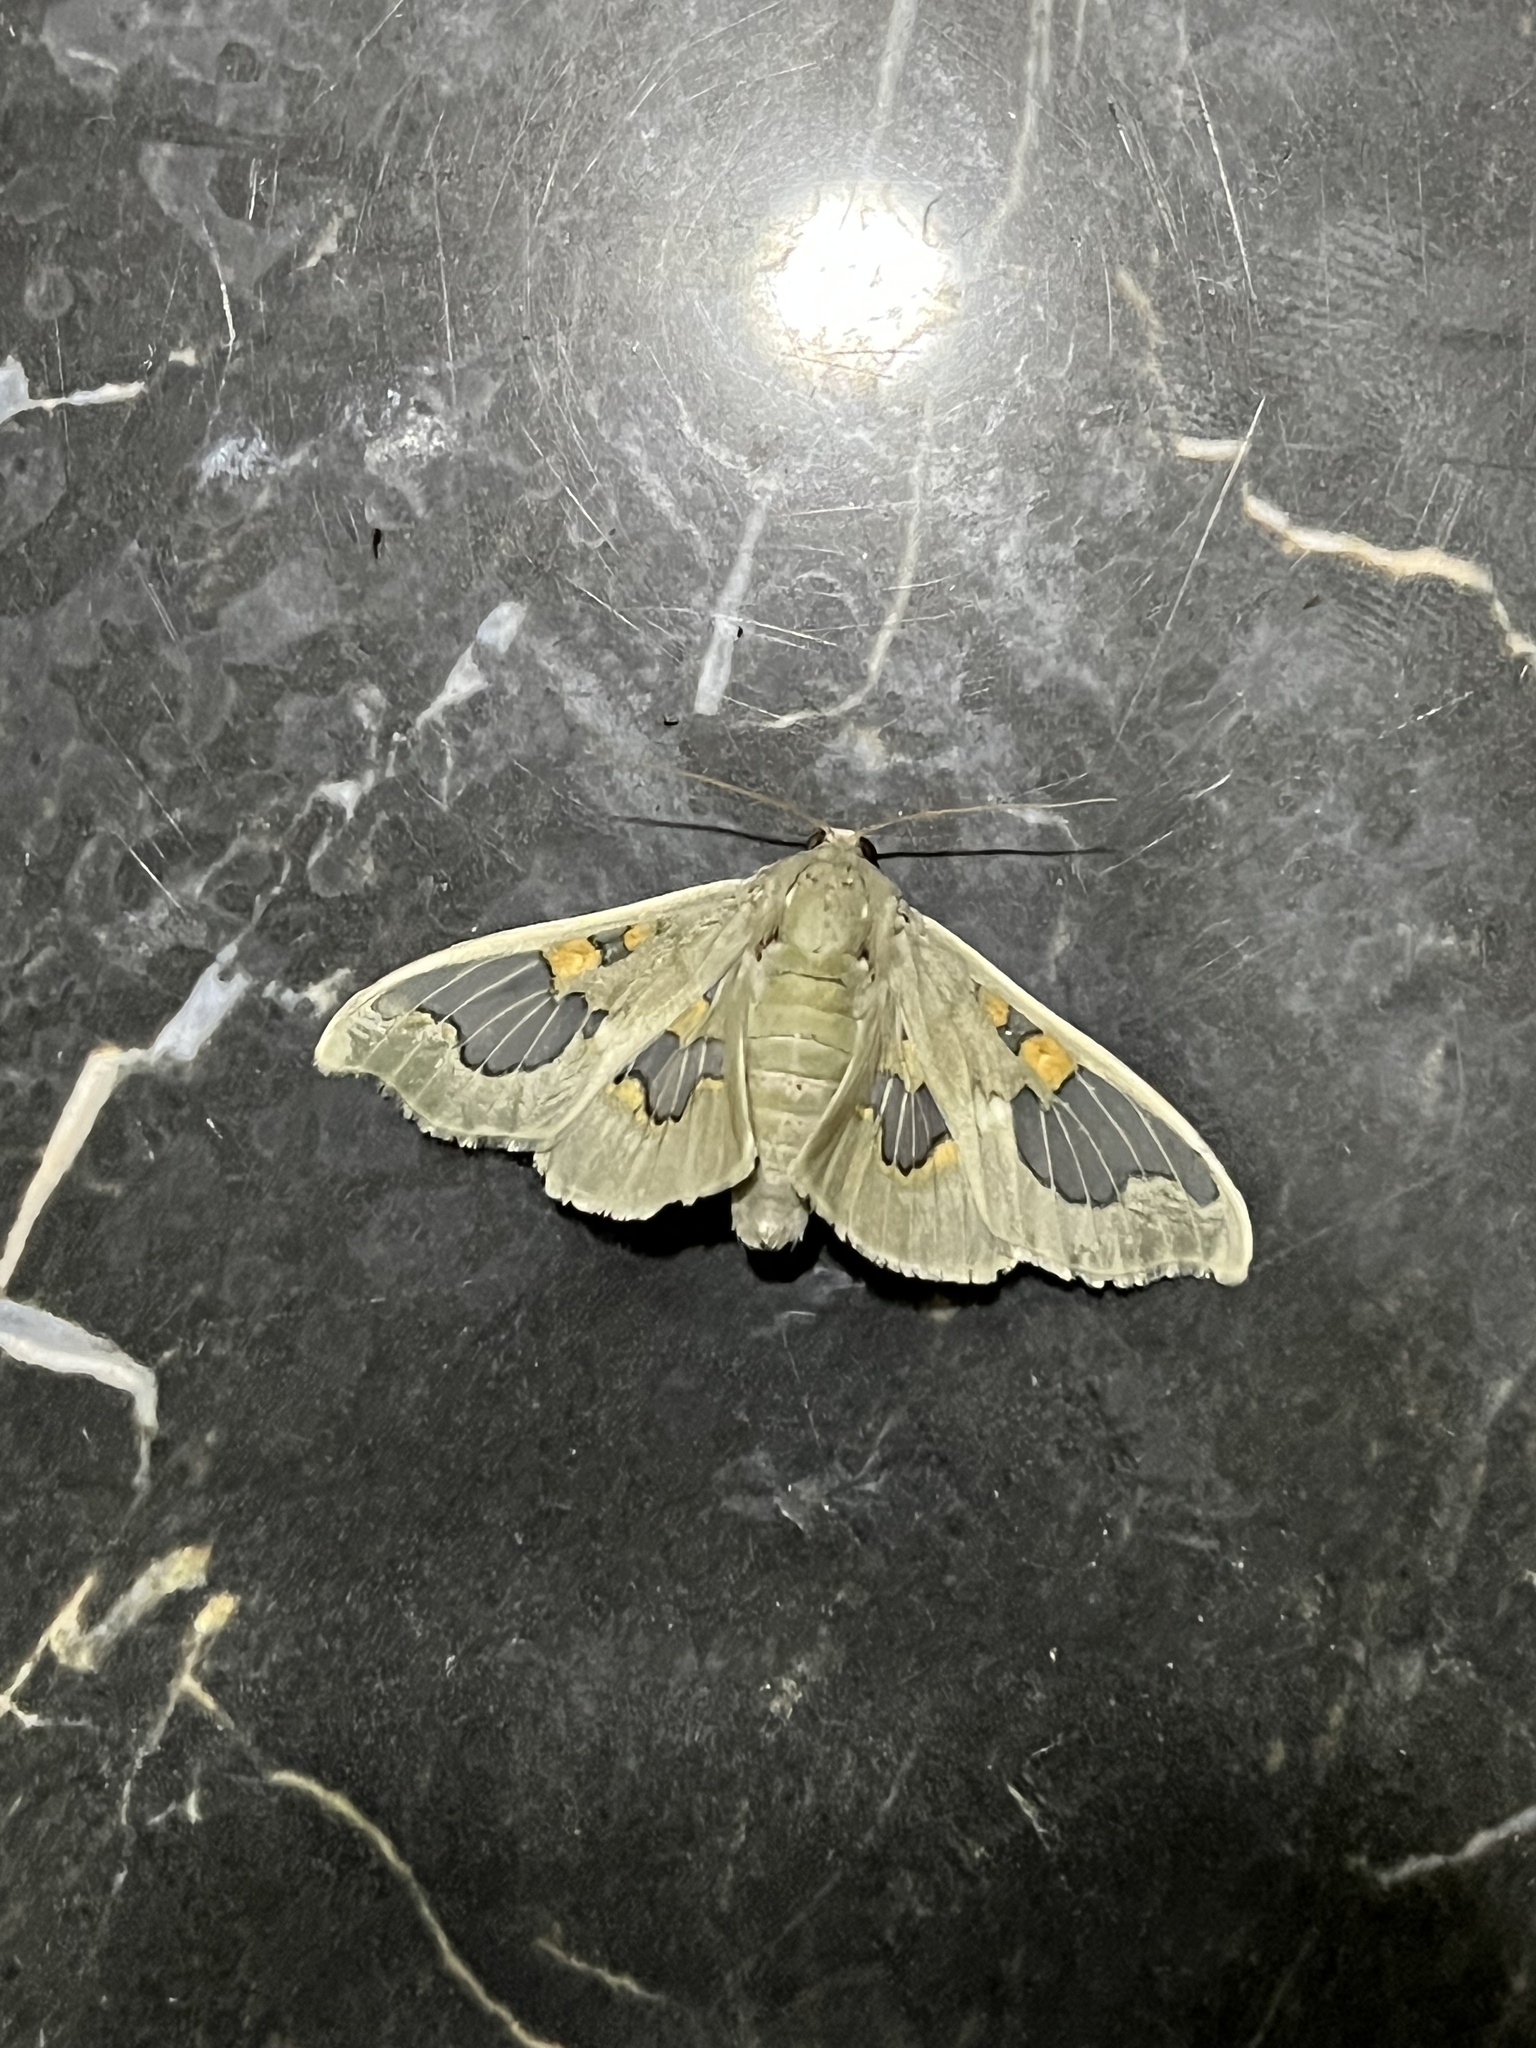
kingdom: Animalia
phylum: Arthropoda
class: Insecta
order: Lepidoptera
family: Crambidae
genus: Siga
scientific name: Siga pyronia
